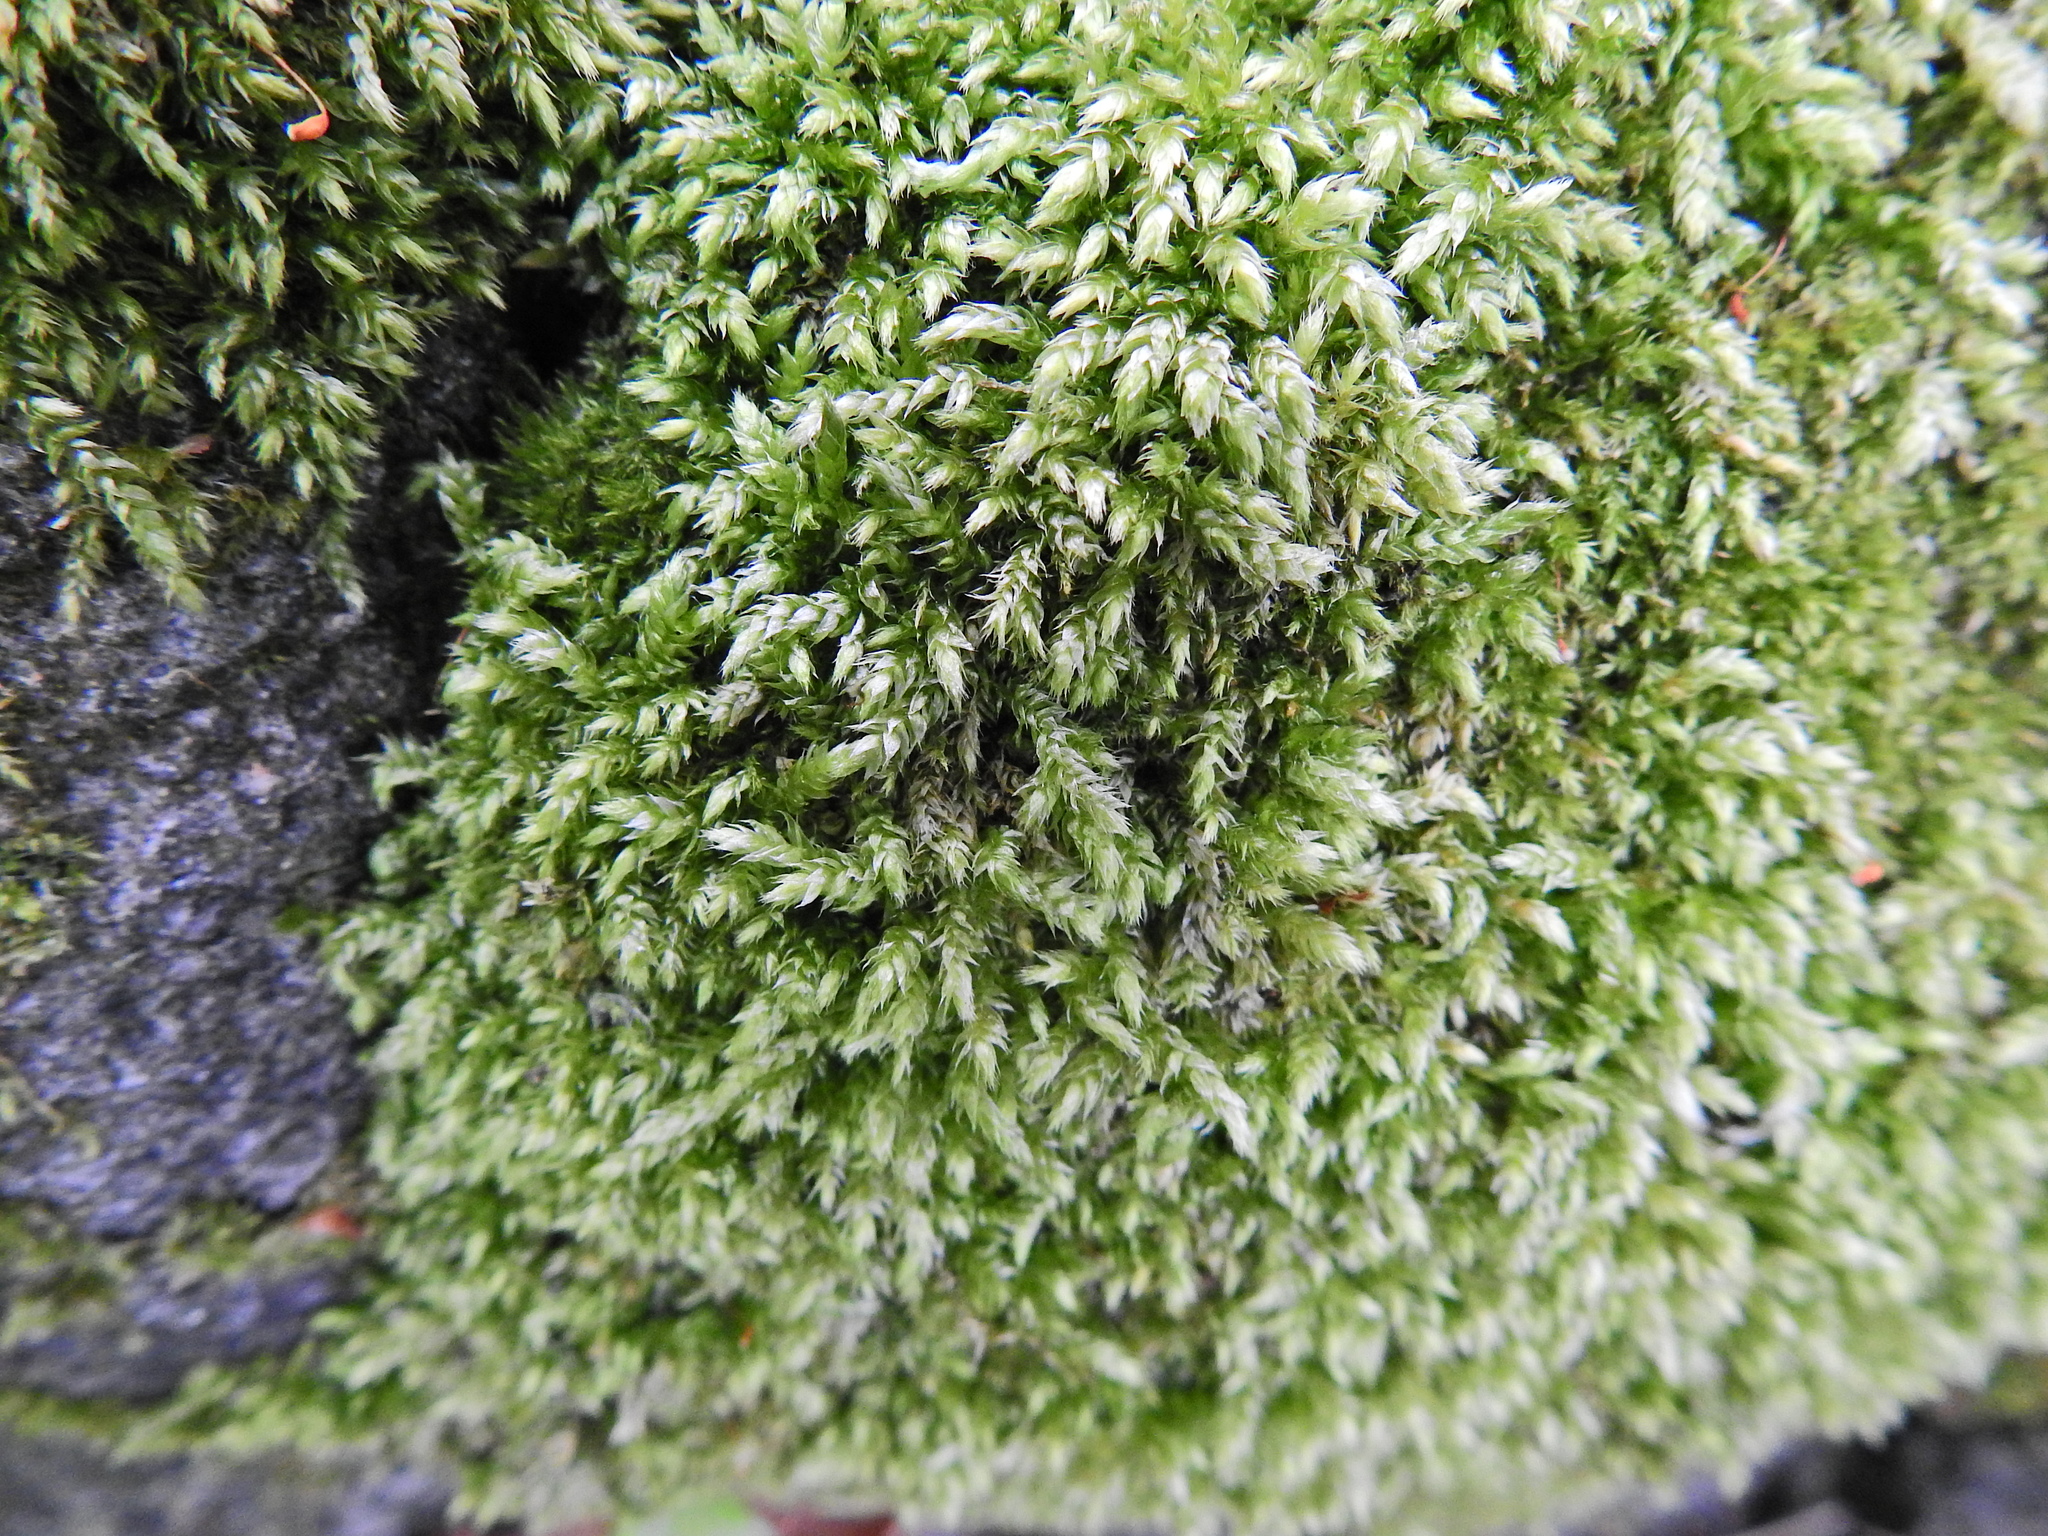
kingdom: Plantae
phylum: Bryophyta
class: Bryopsida
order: Hypnales
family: Brachytheciaceae
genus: Brachythecium
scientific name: Brachythecium rutabulum
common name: Rough-stalked feather-moss
